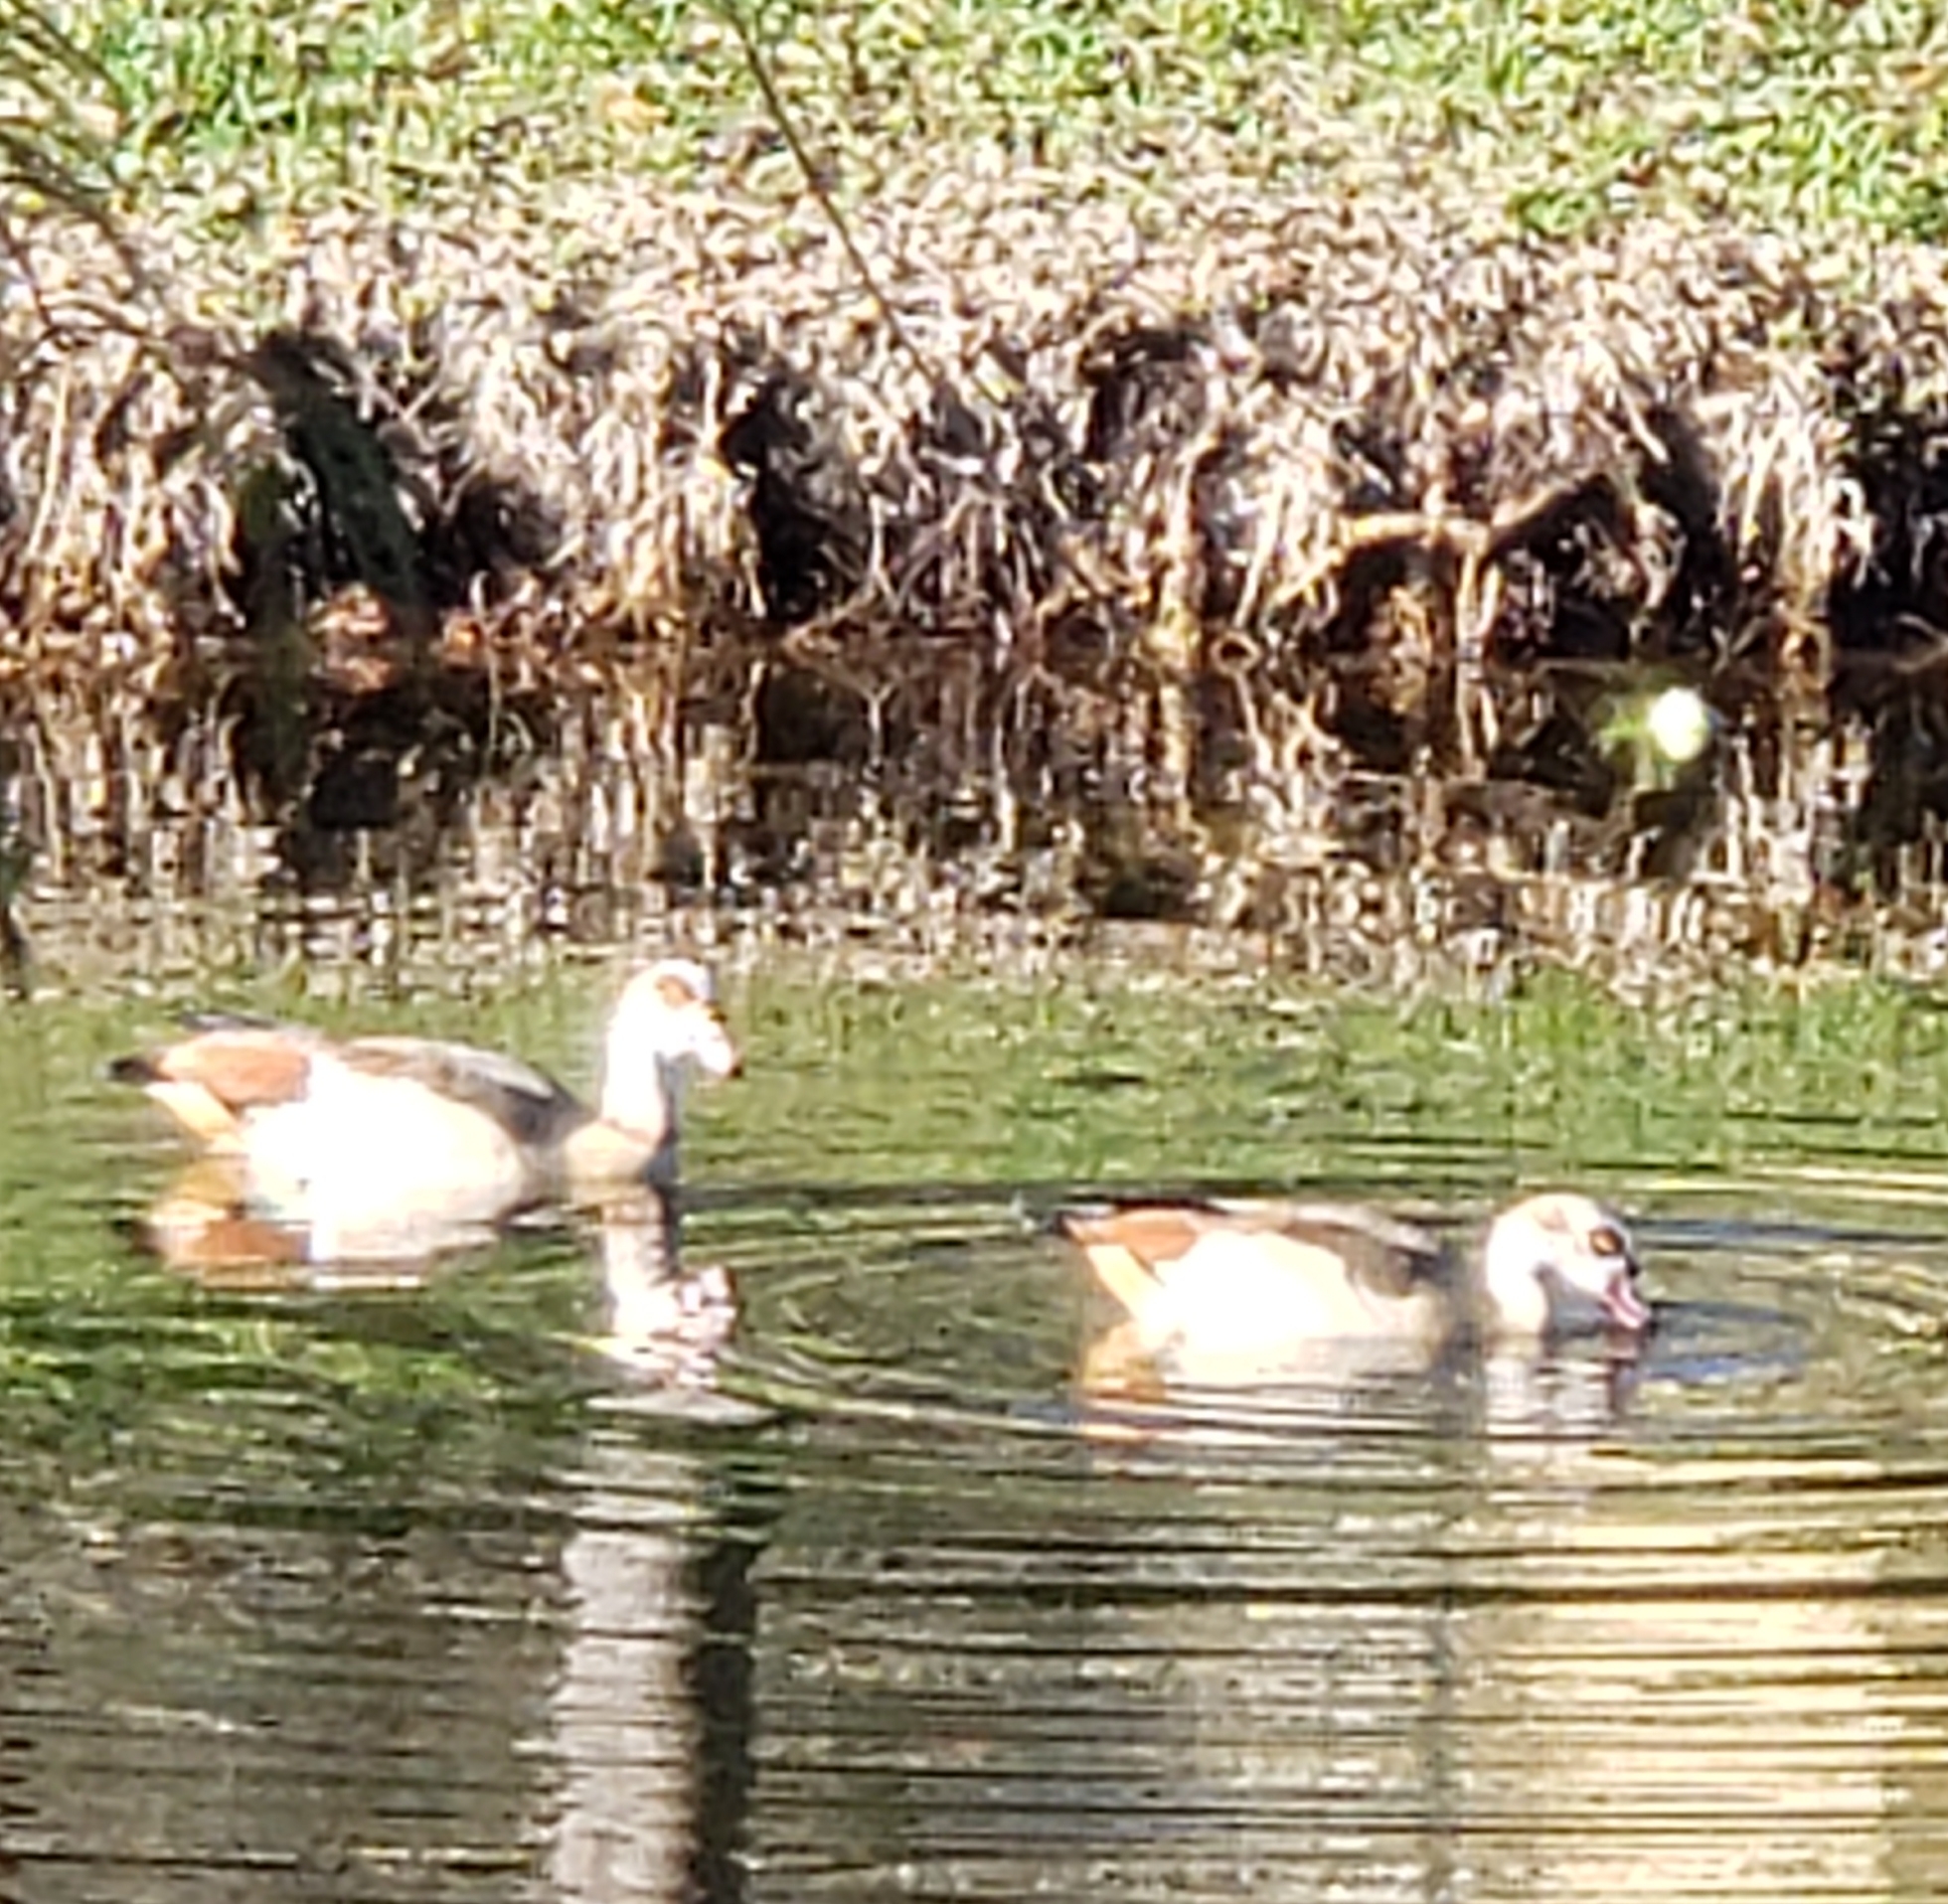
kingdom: Animalia
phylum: Chordata
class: Aves
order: Anseriformes
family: Anatidae
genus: Alopochen
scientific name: Alopochen aegyptiaca
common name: Egyptian goose
